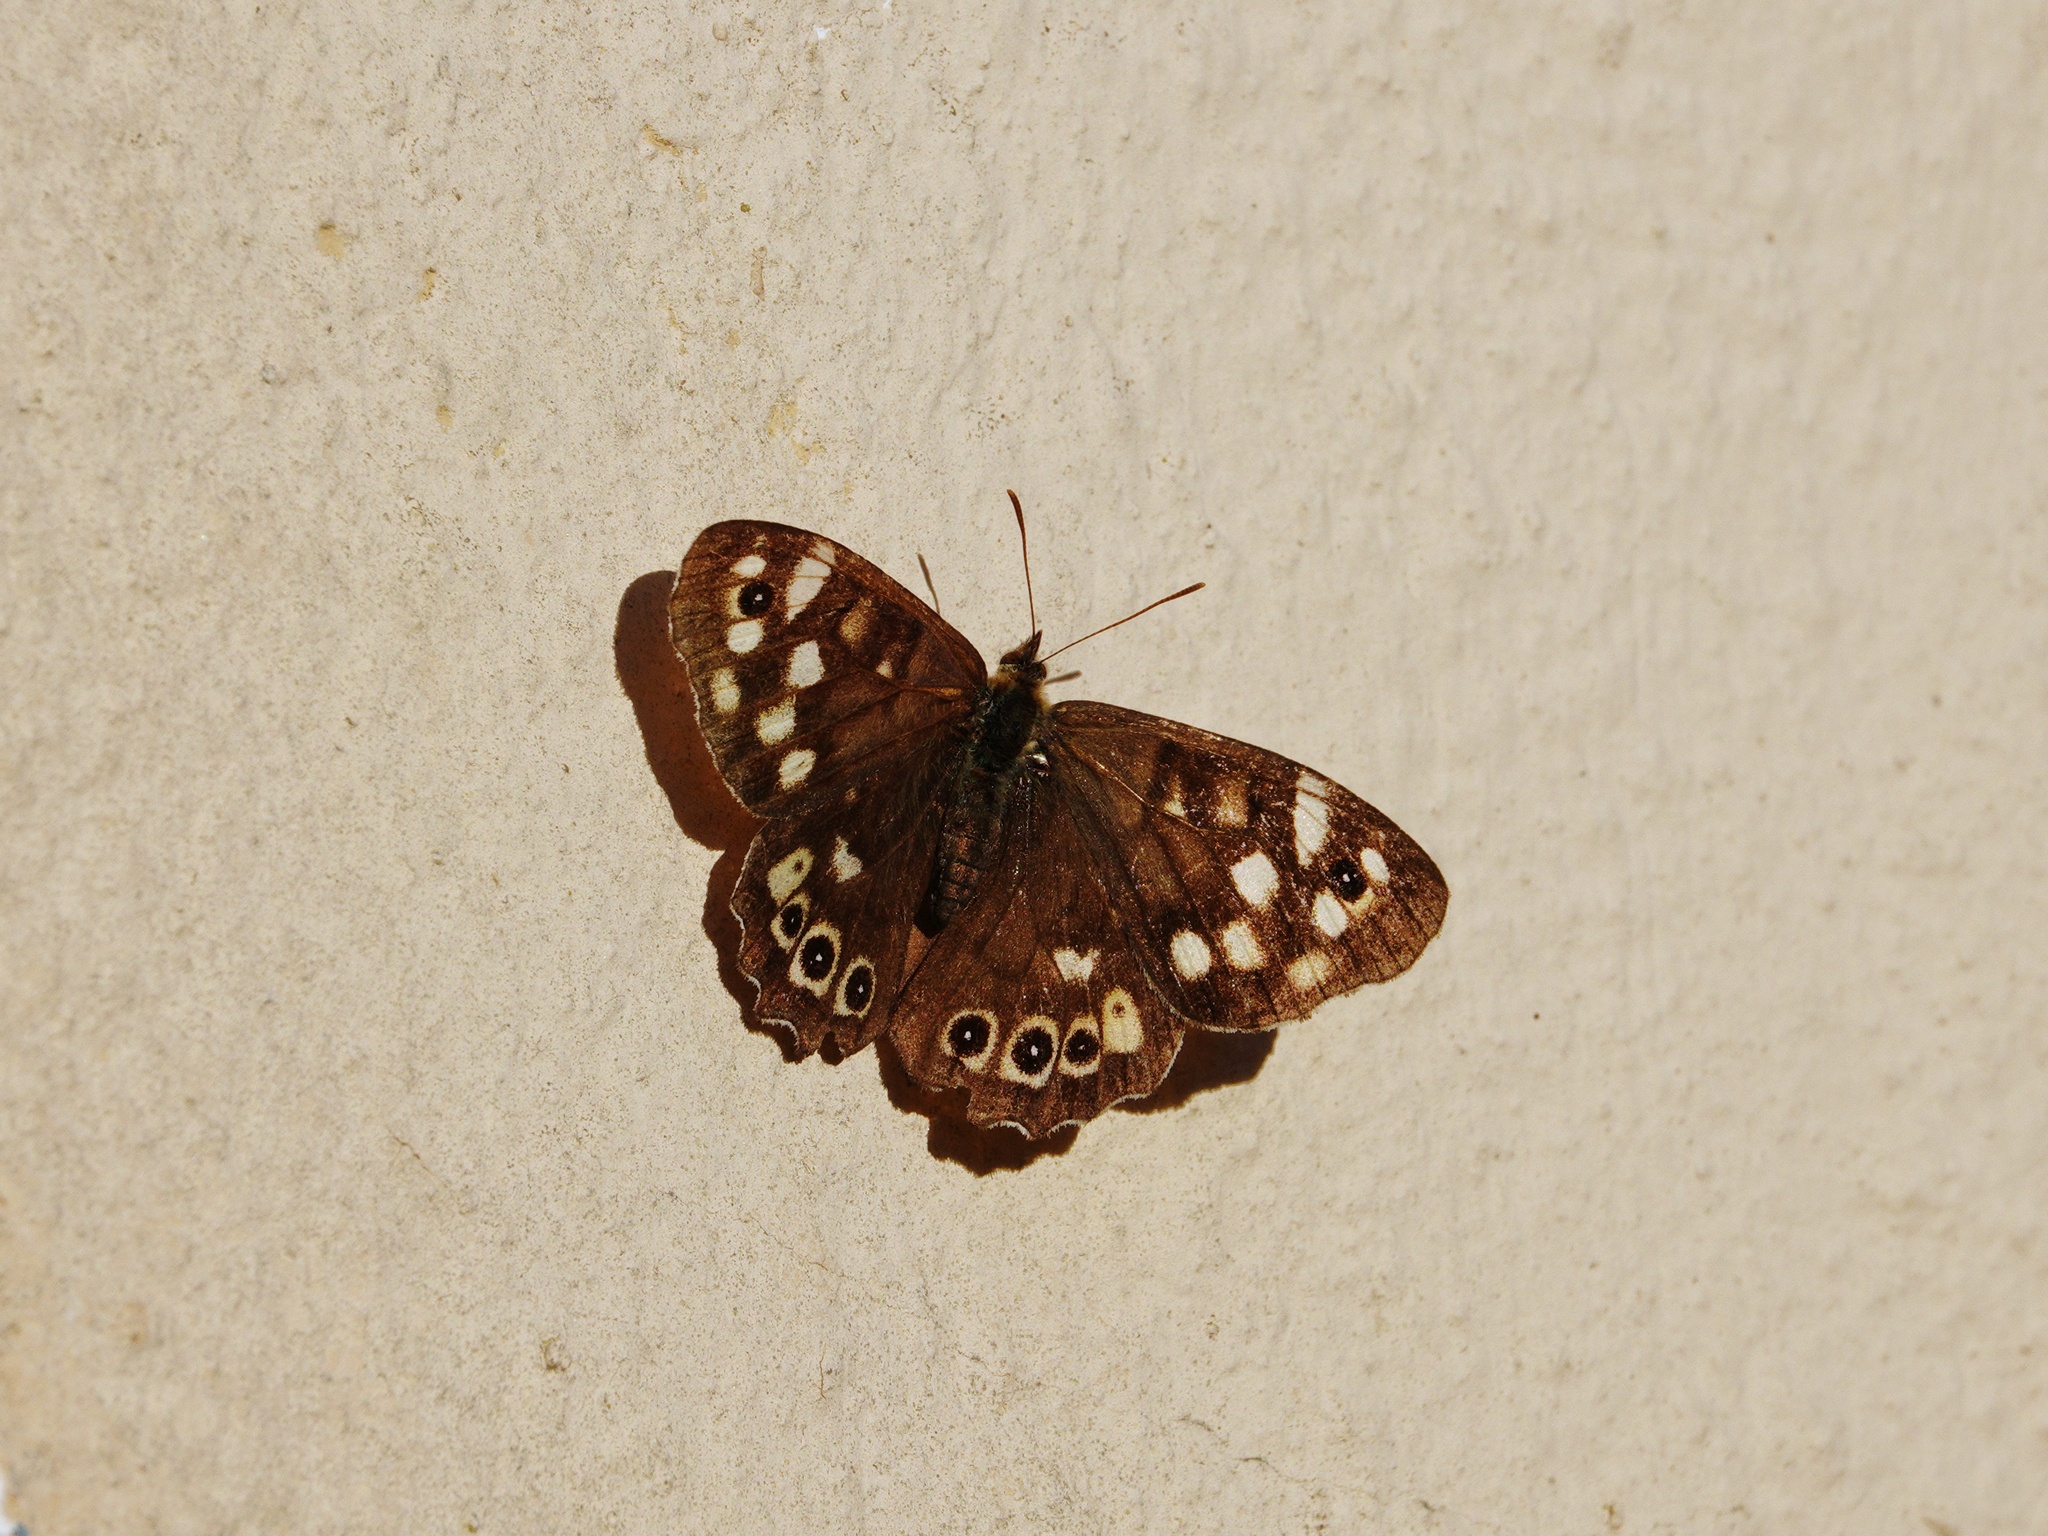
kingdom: Animalia
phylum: Arthropoda
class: Insecta
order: Lepidoptera
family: Nymphalidae
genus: Pararge
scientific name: Pararge aegeria
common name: Speckled wood
